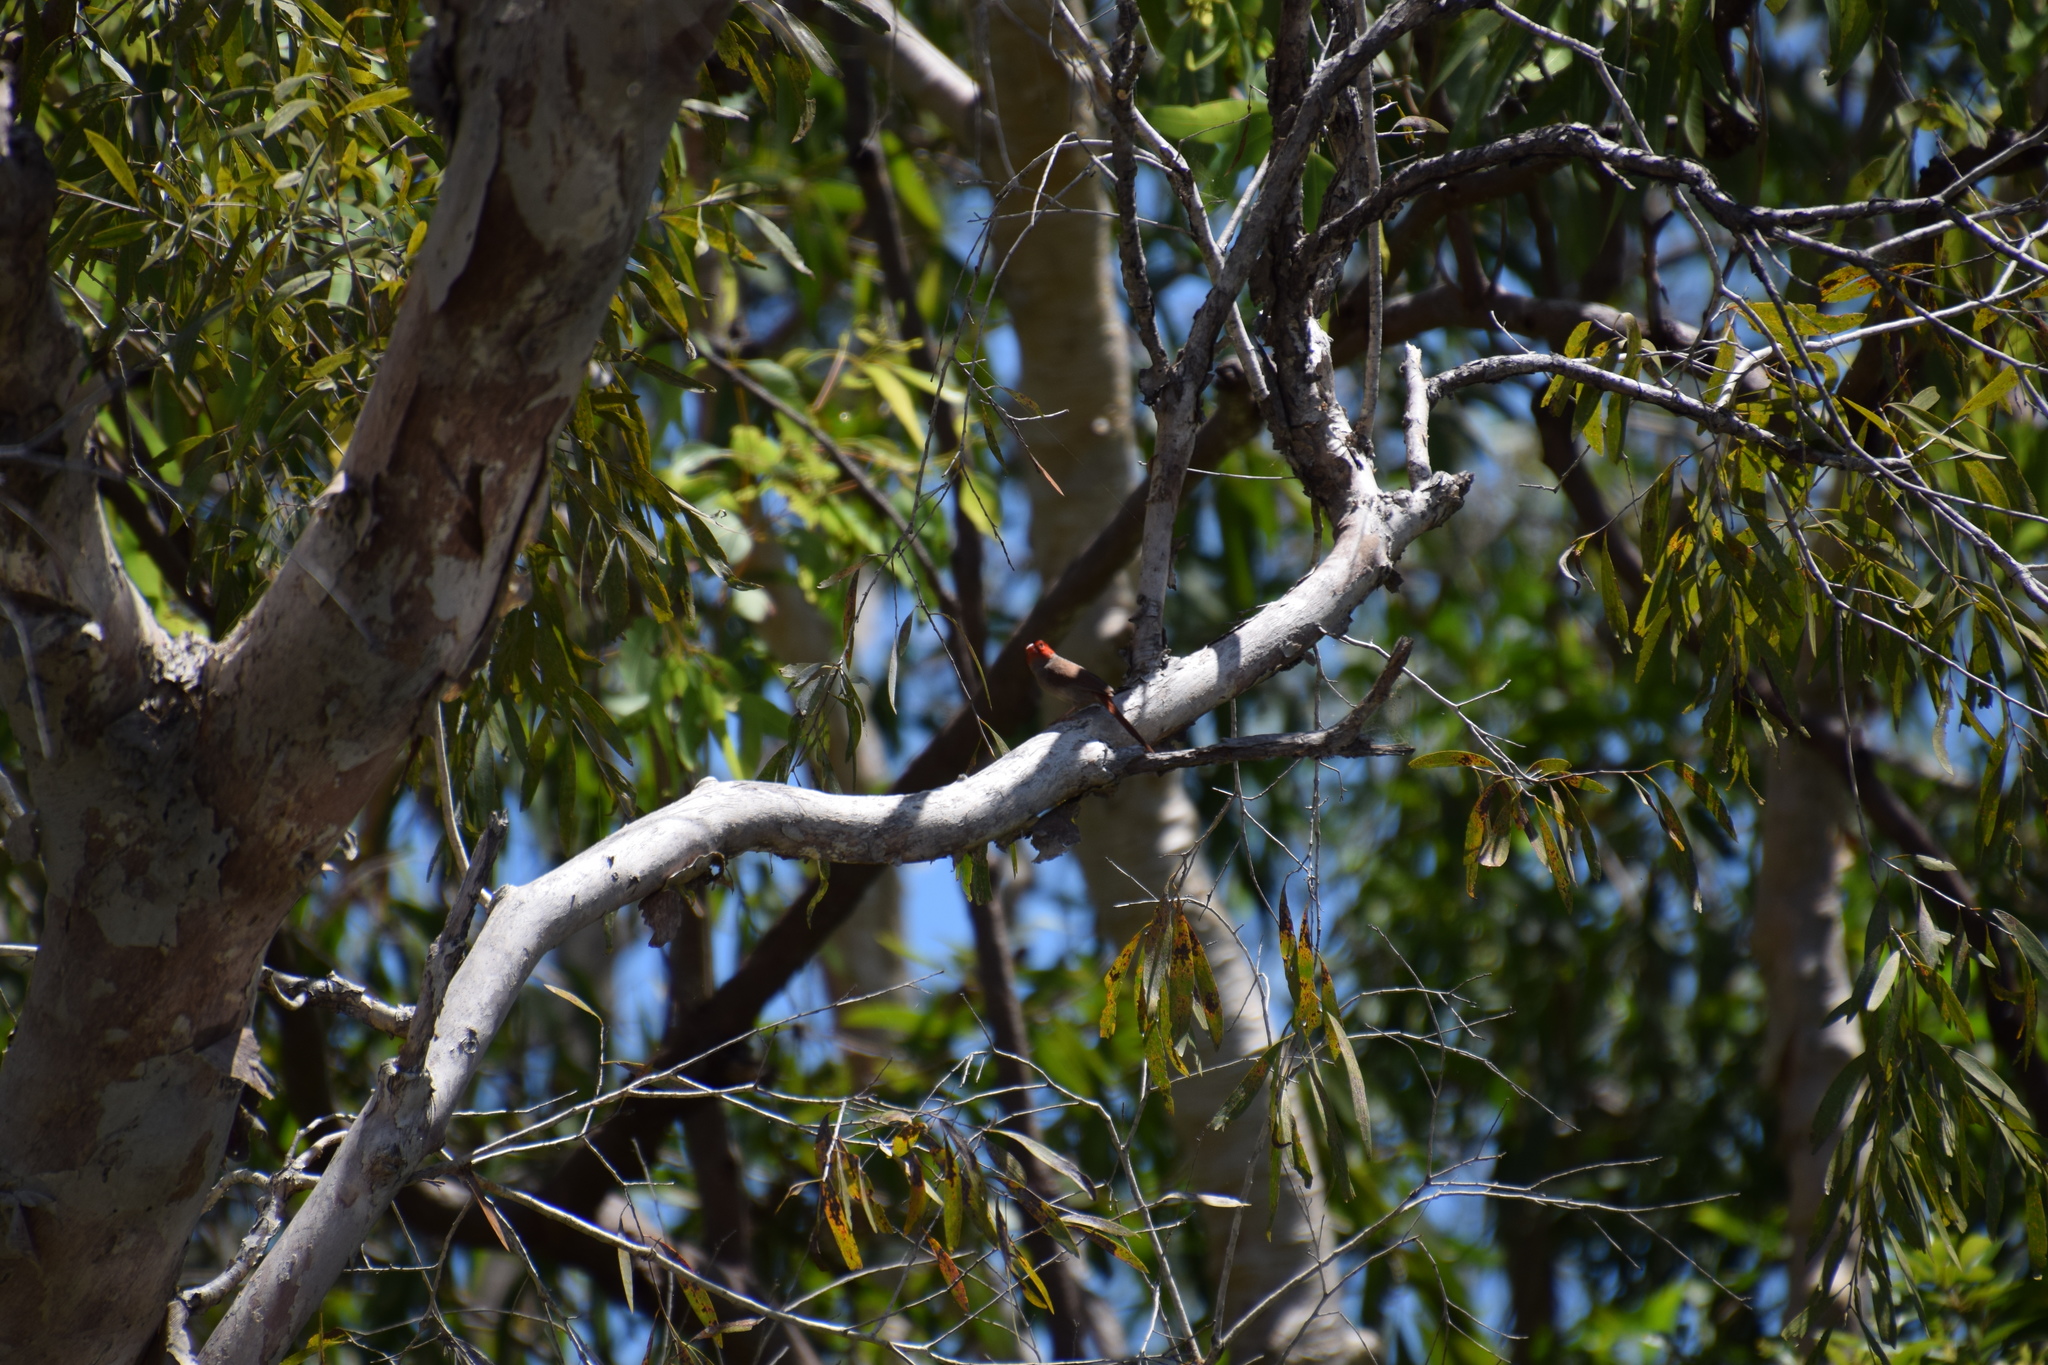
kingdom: Animalia
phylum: Chordata
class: Aves
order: Passeriformes
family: Estrildidae
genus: Neochmia
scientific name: Neochmia phaeton
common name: Crimson finch
